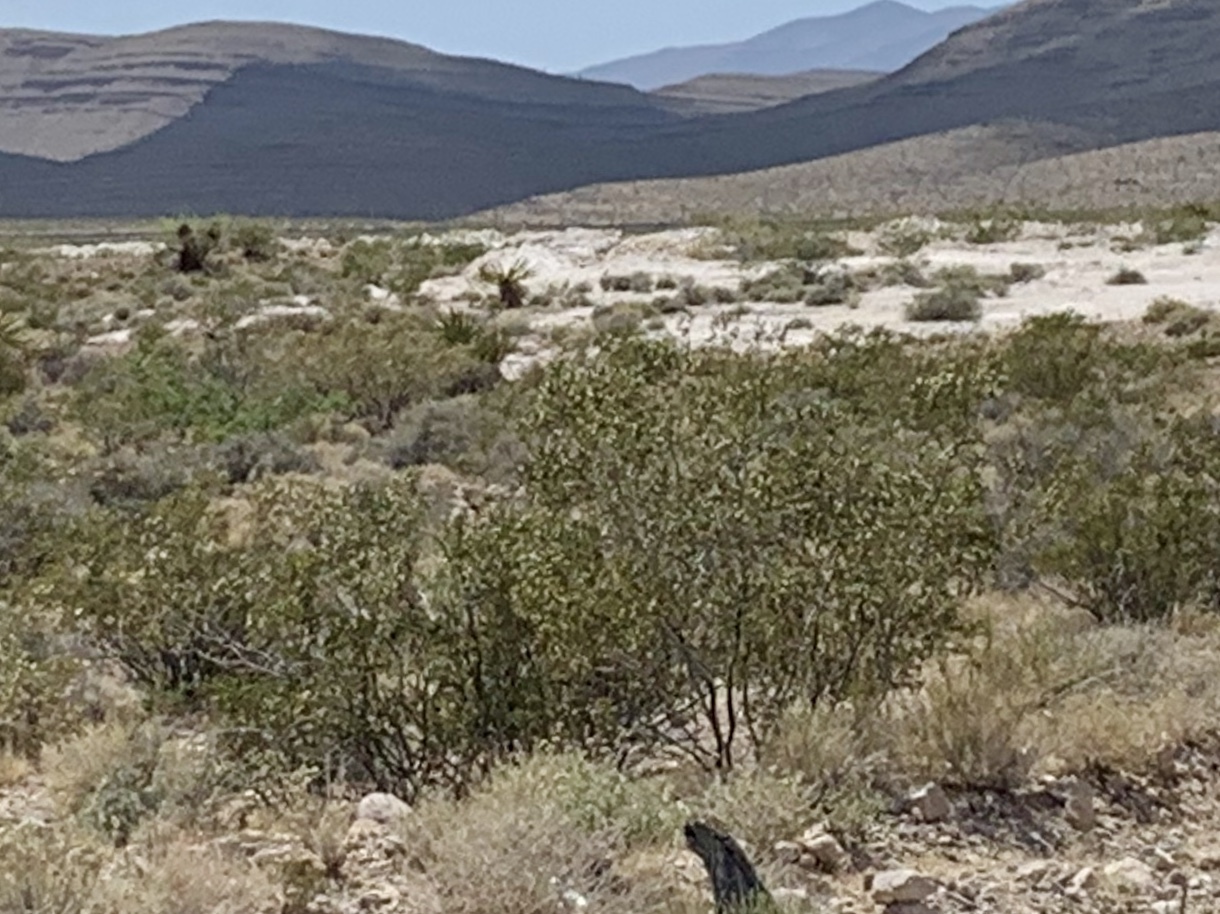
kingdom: Plantae
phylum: Tracheophyta
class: Magnoliopsida
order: Zygophyllales
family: Zygophyllaceae
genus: Larrea
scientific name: Larrea tridentata
